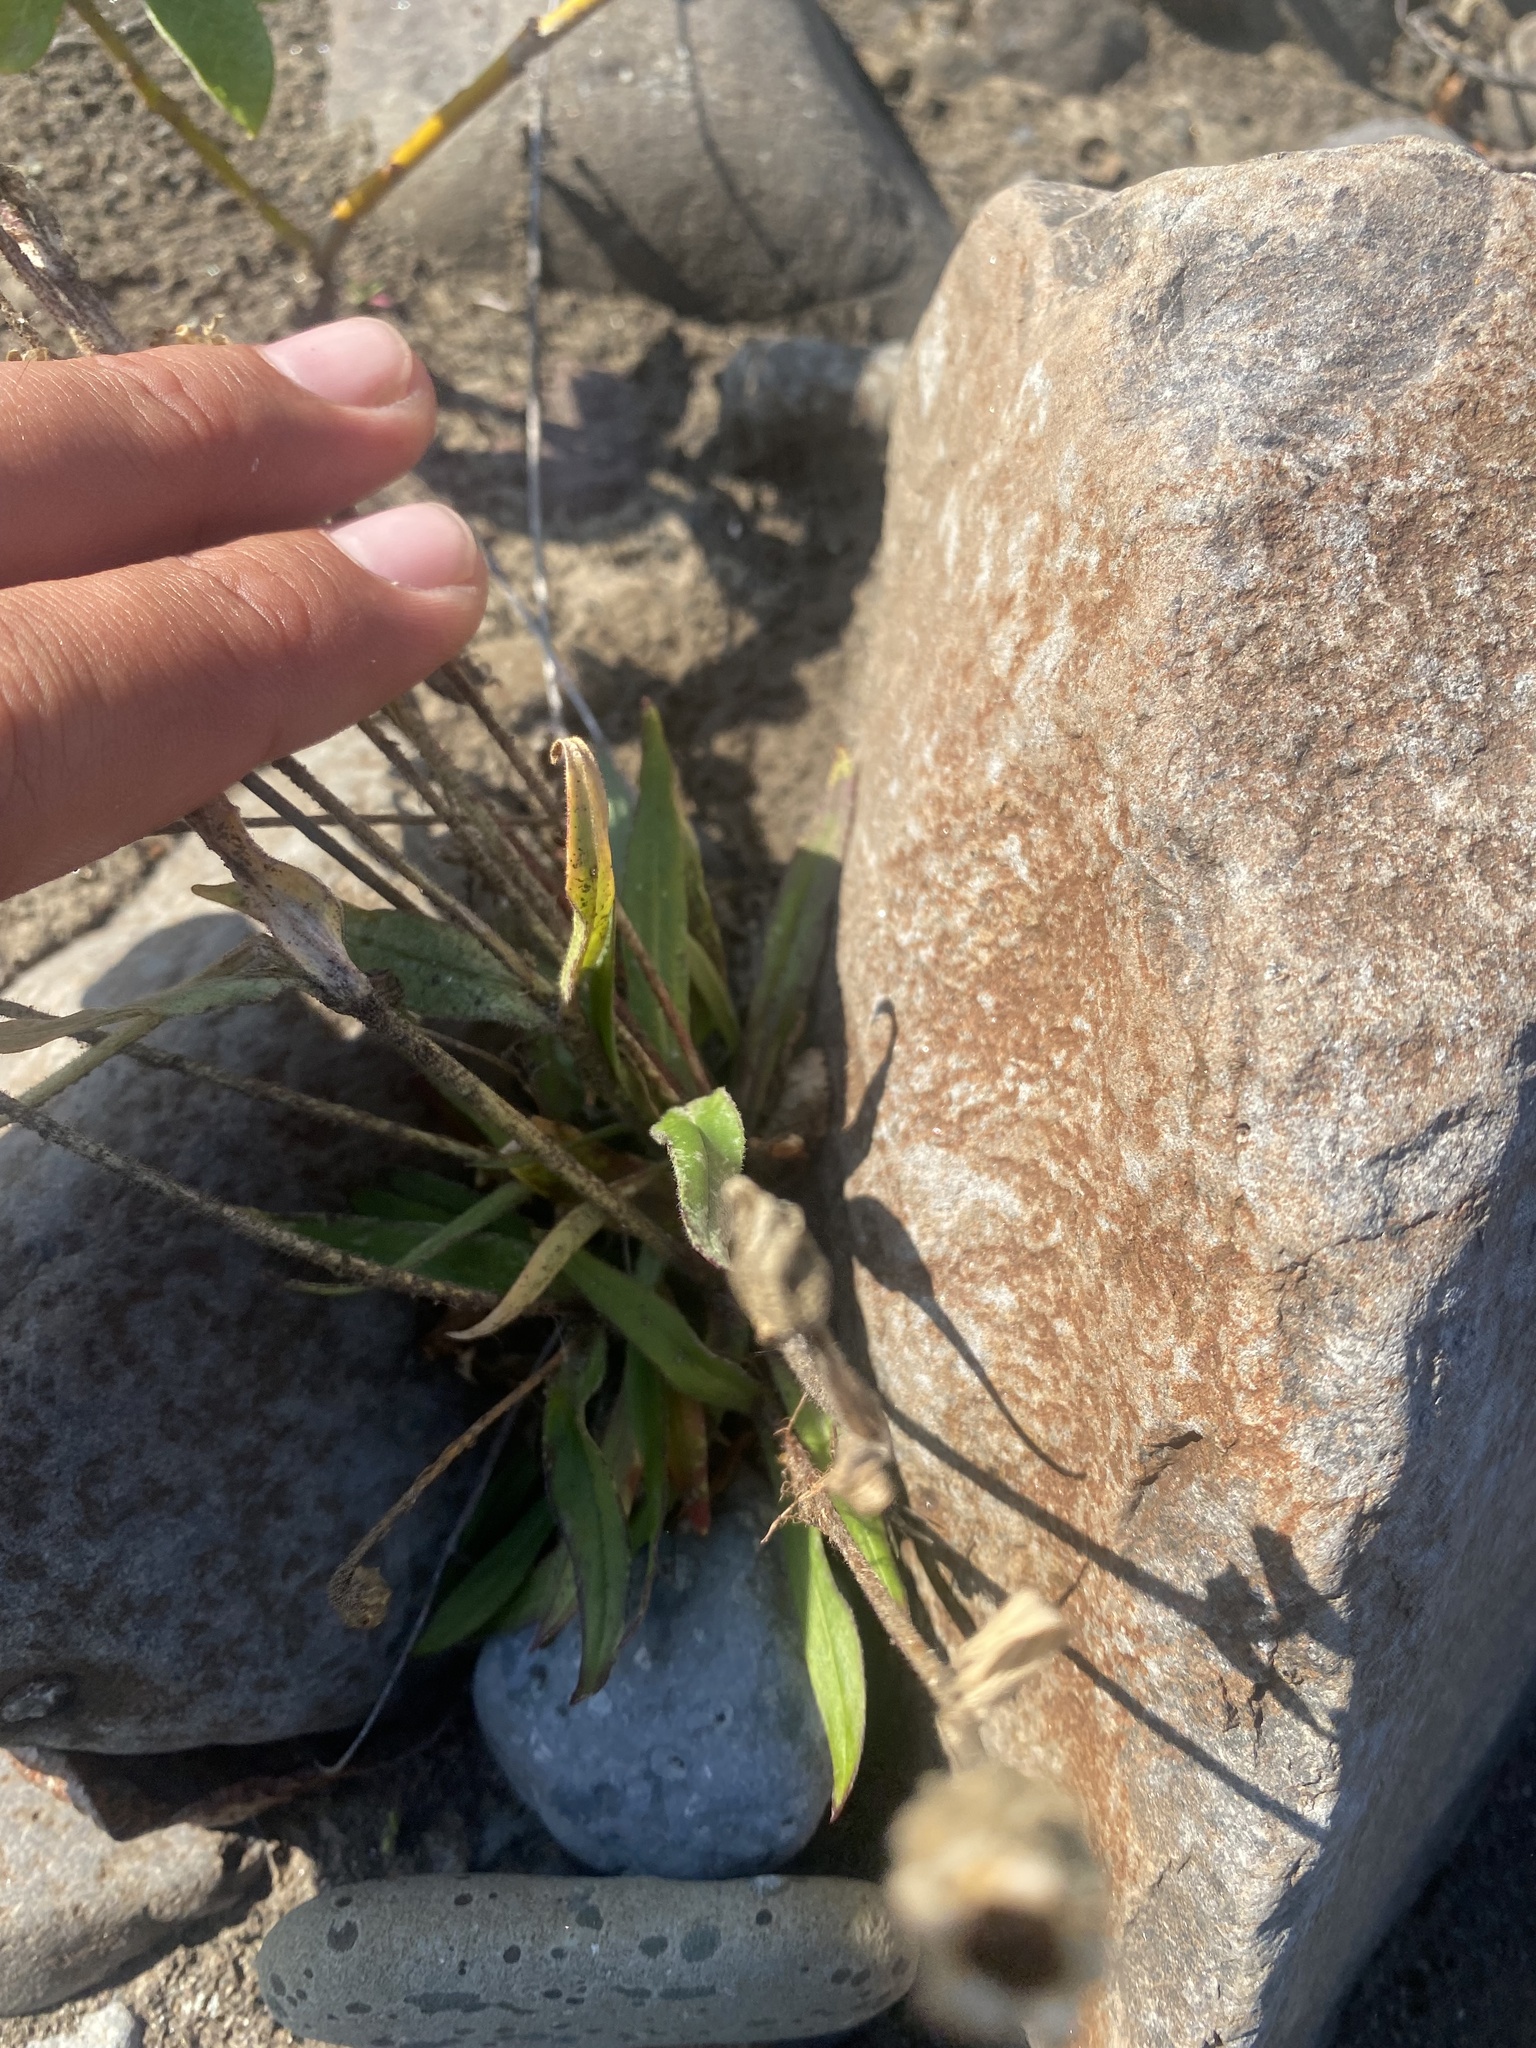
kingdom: Plantae
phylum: Tracheophyta
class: Magnoliopsida
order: Caryophyllales
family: Caryophyllaceae
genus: Silene
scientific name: Silene involucrata
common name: Greater arctic campion
